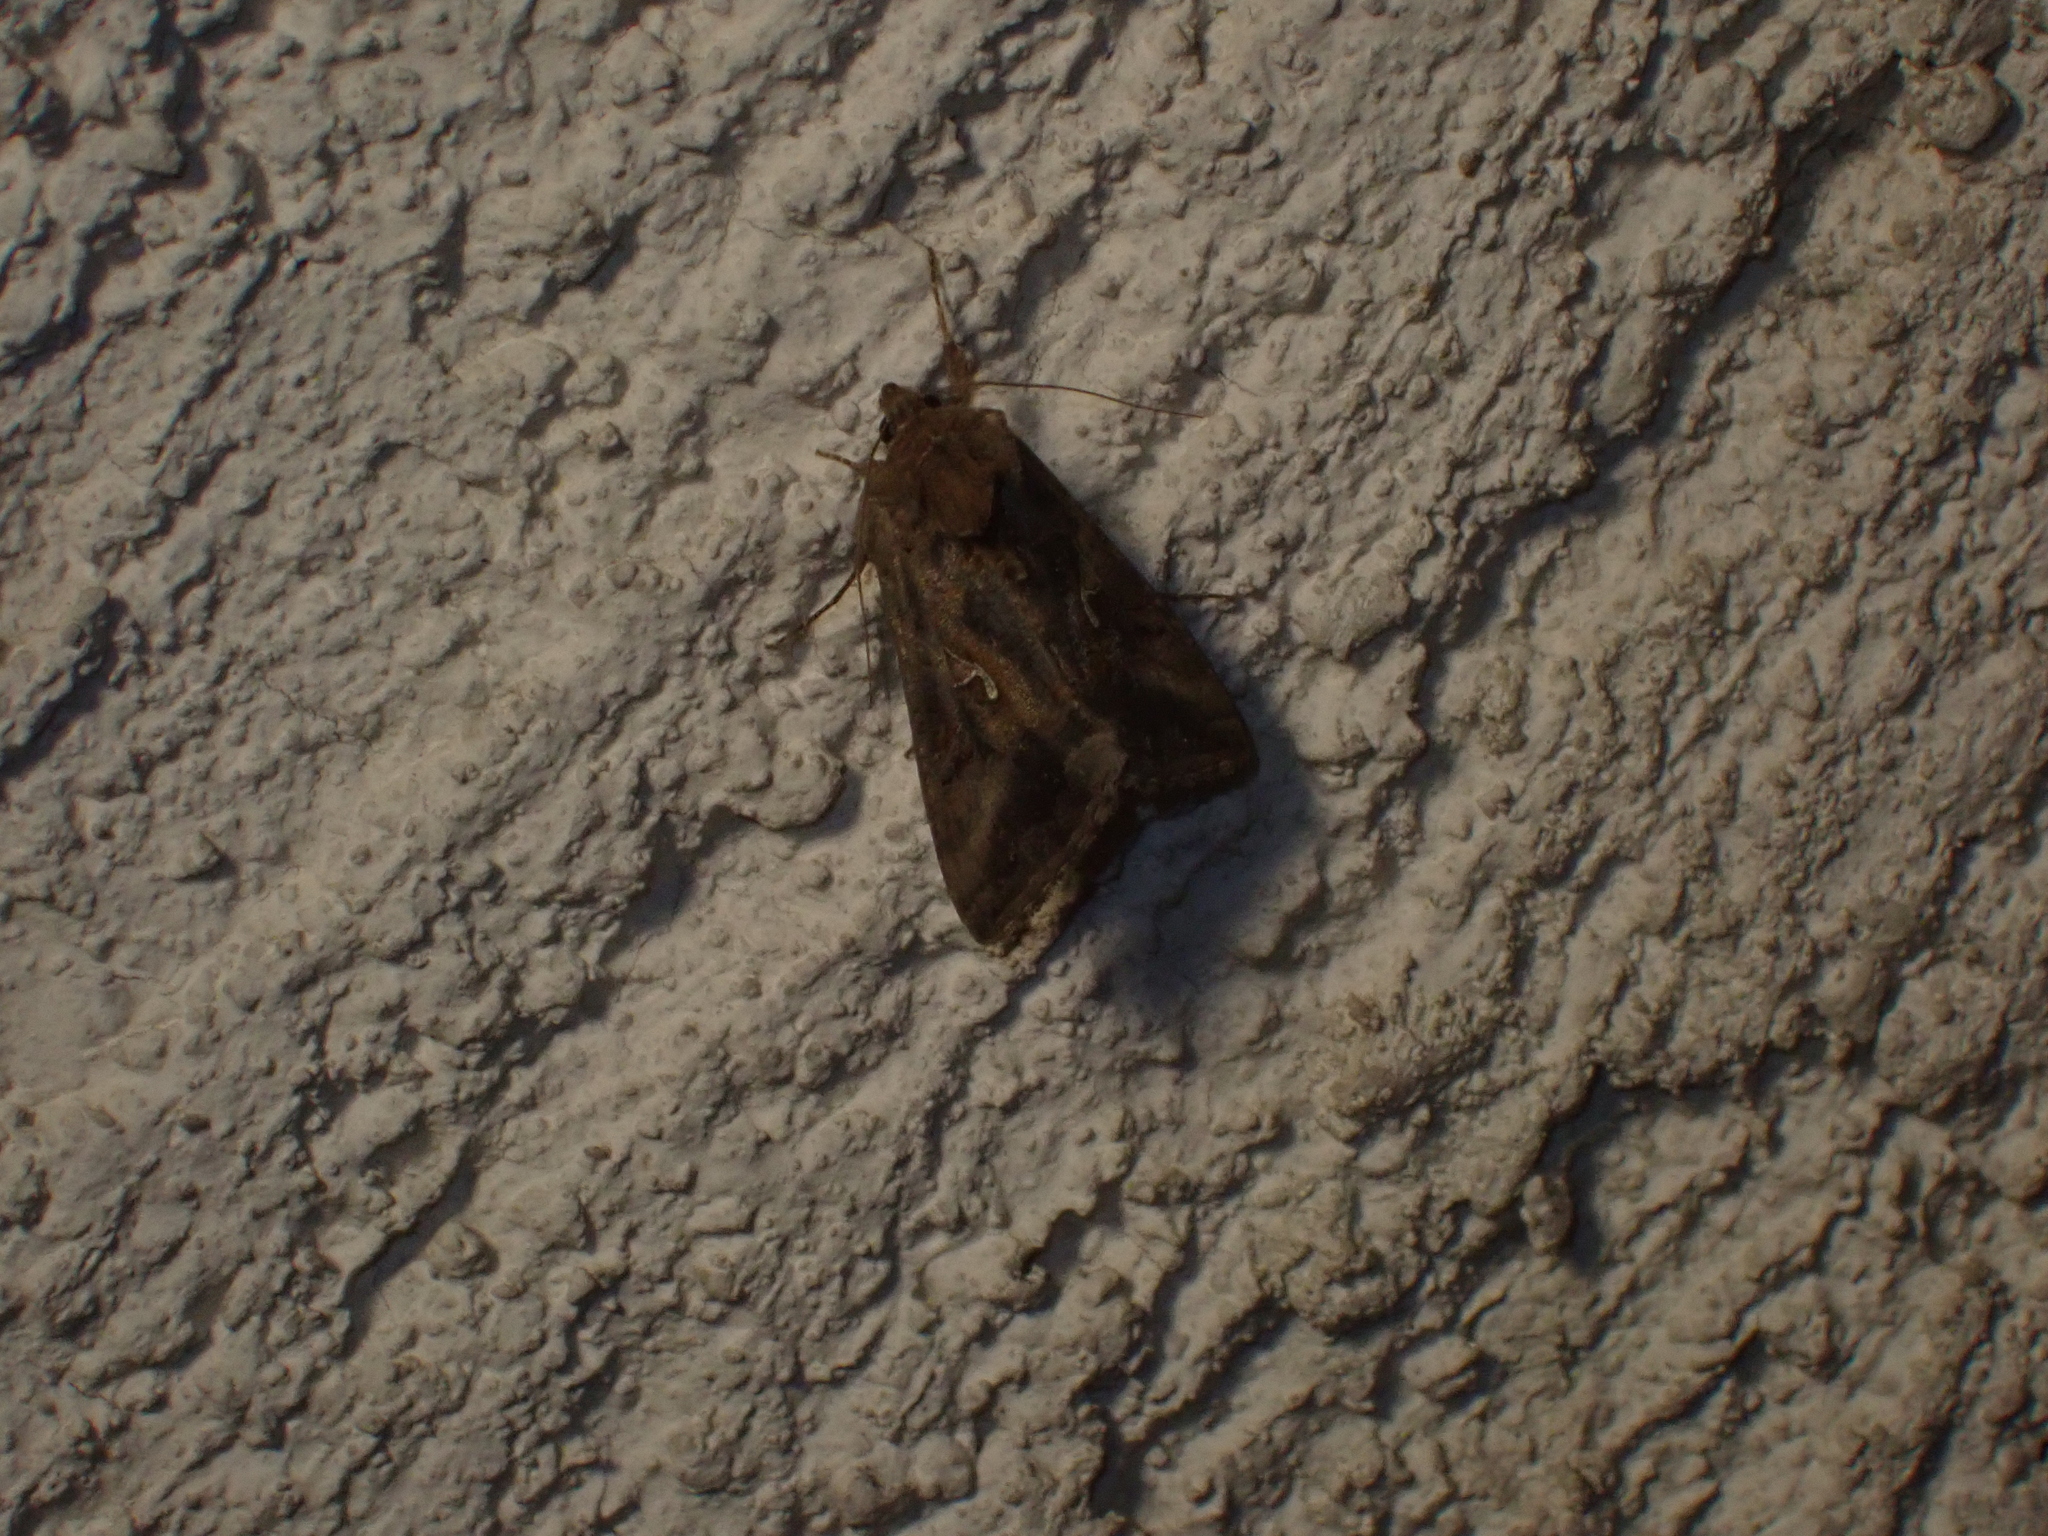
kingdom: Animalia
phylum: Arthropoda
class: Insecta
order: Lepidoptera
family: Noctuidae
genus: Autographa
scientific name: Autographa gamma
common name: Silver y
